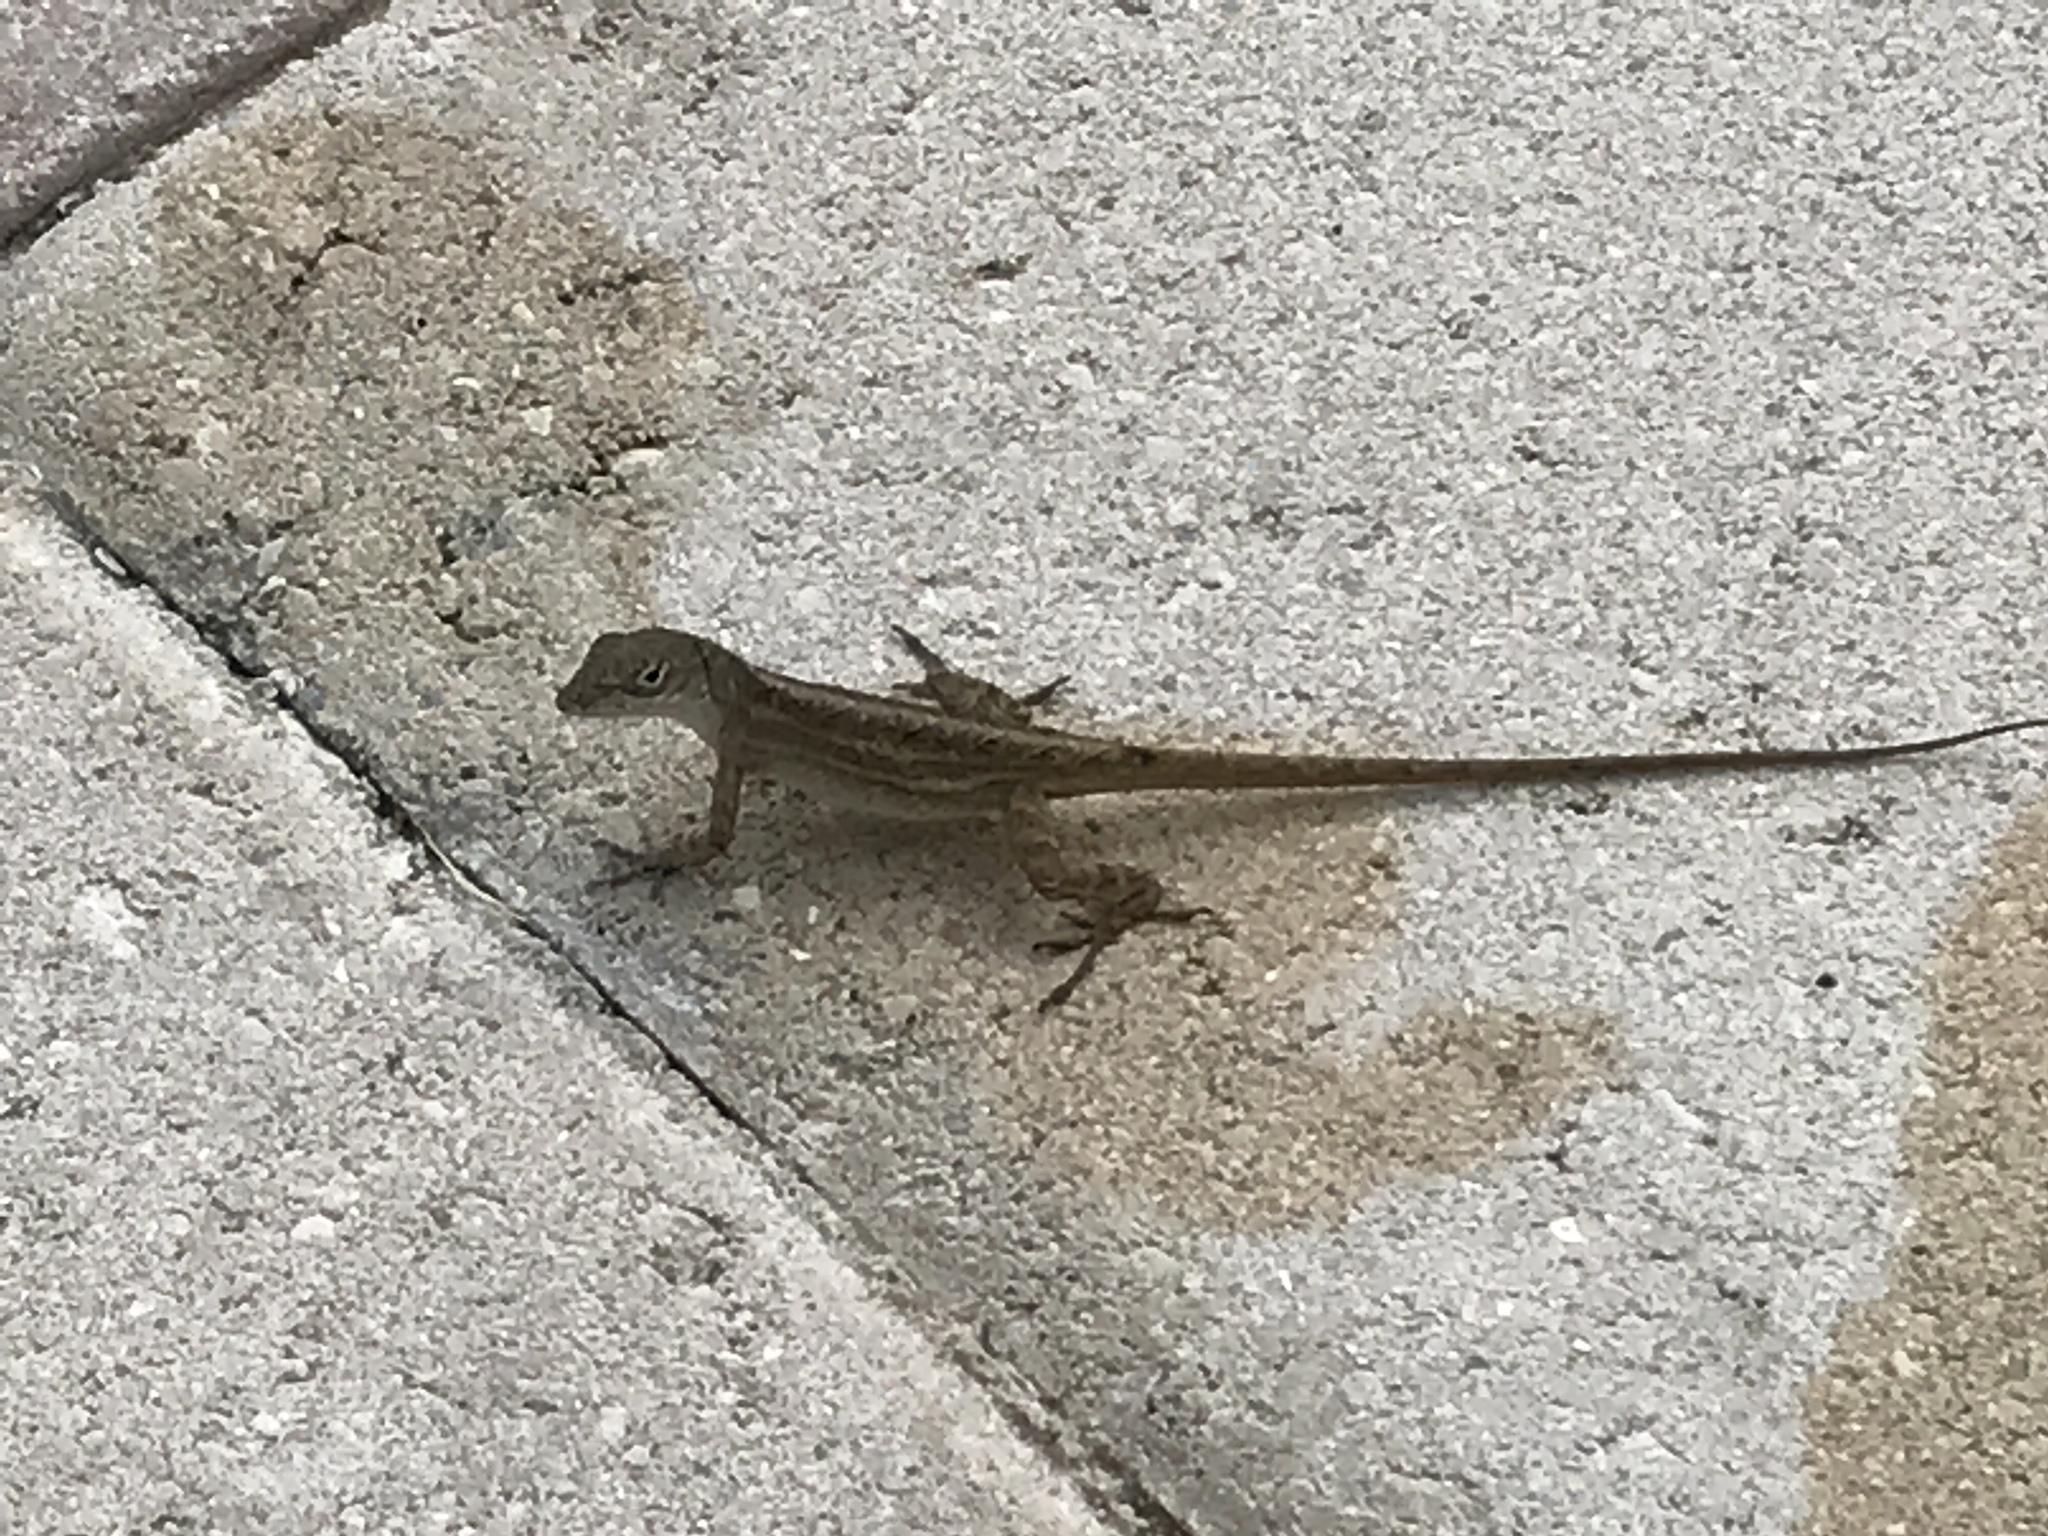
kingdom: Animalia
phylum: Chordata
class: Squamata
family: Dactyloidae
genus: Anolis
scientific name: Anolis sagrei
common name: Brown anole
